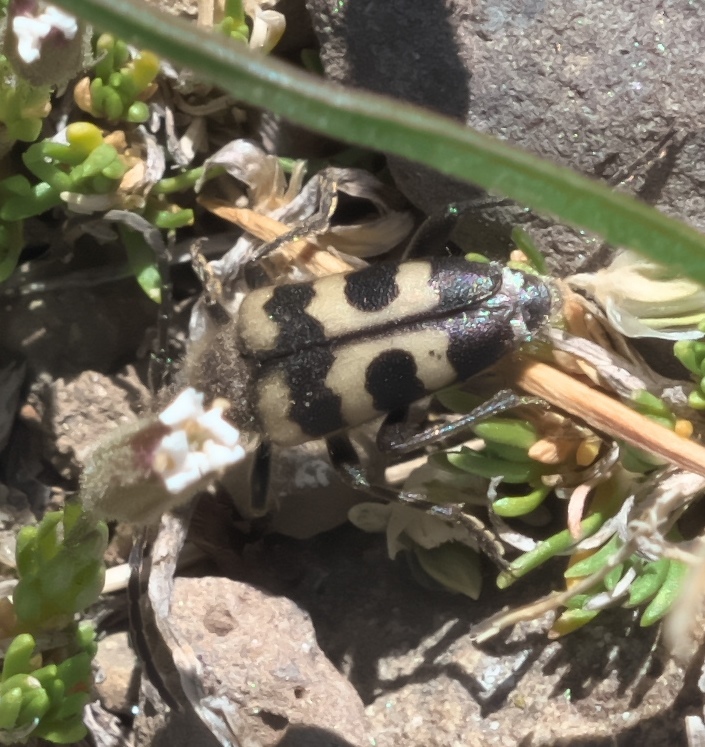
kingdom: Animalia
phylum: Arthropoda
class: Insecta
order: Coleoptera
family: Cerambycidae
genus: Judolia
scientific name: Judolia instabilis
